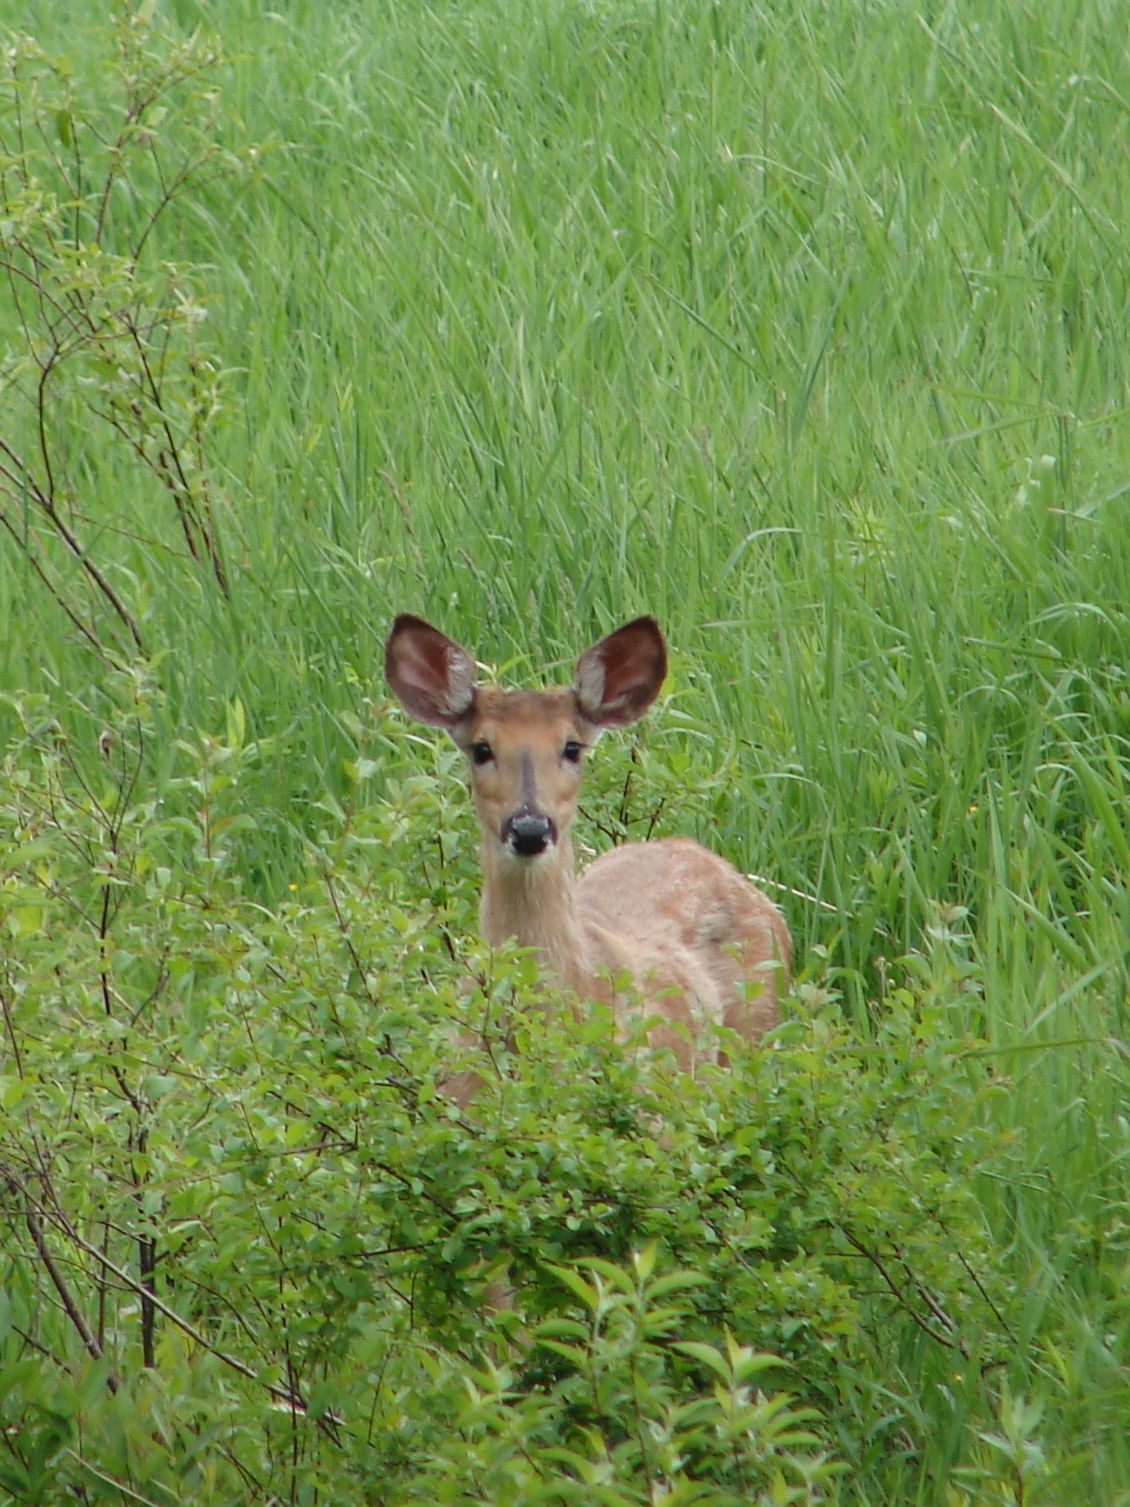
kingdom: Animalia
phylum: Chordata
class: Mammalia
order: Artiodactyla
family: Cervidae
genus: Odocoileus
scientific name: Odocoileus virginianus
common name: White-tailed deer
